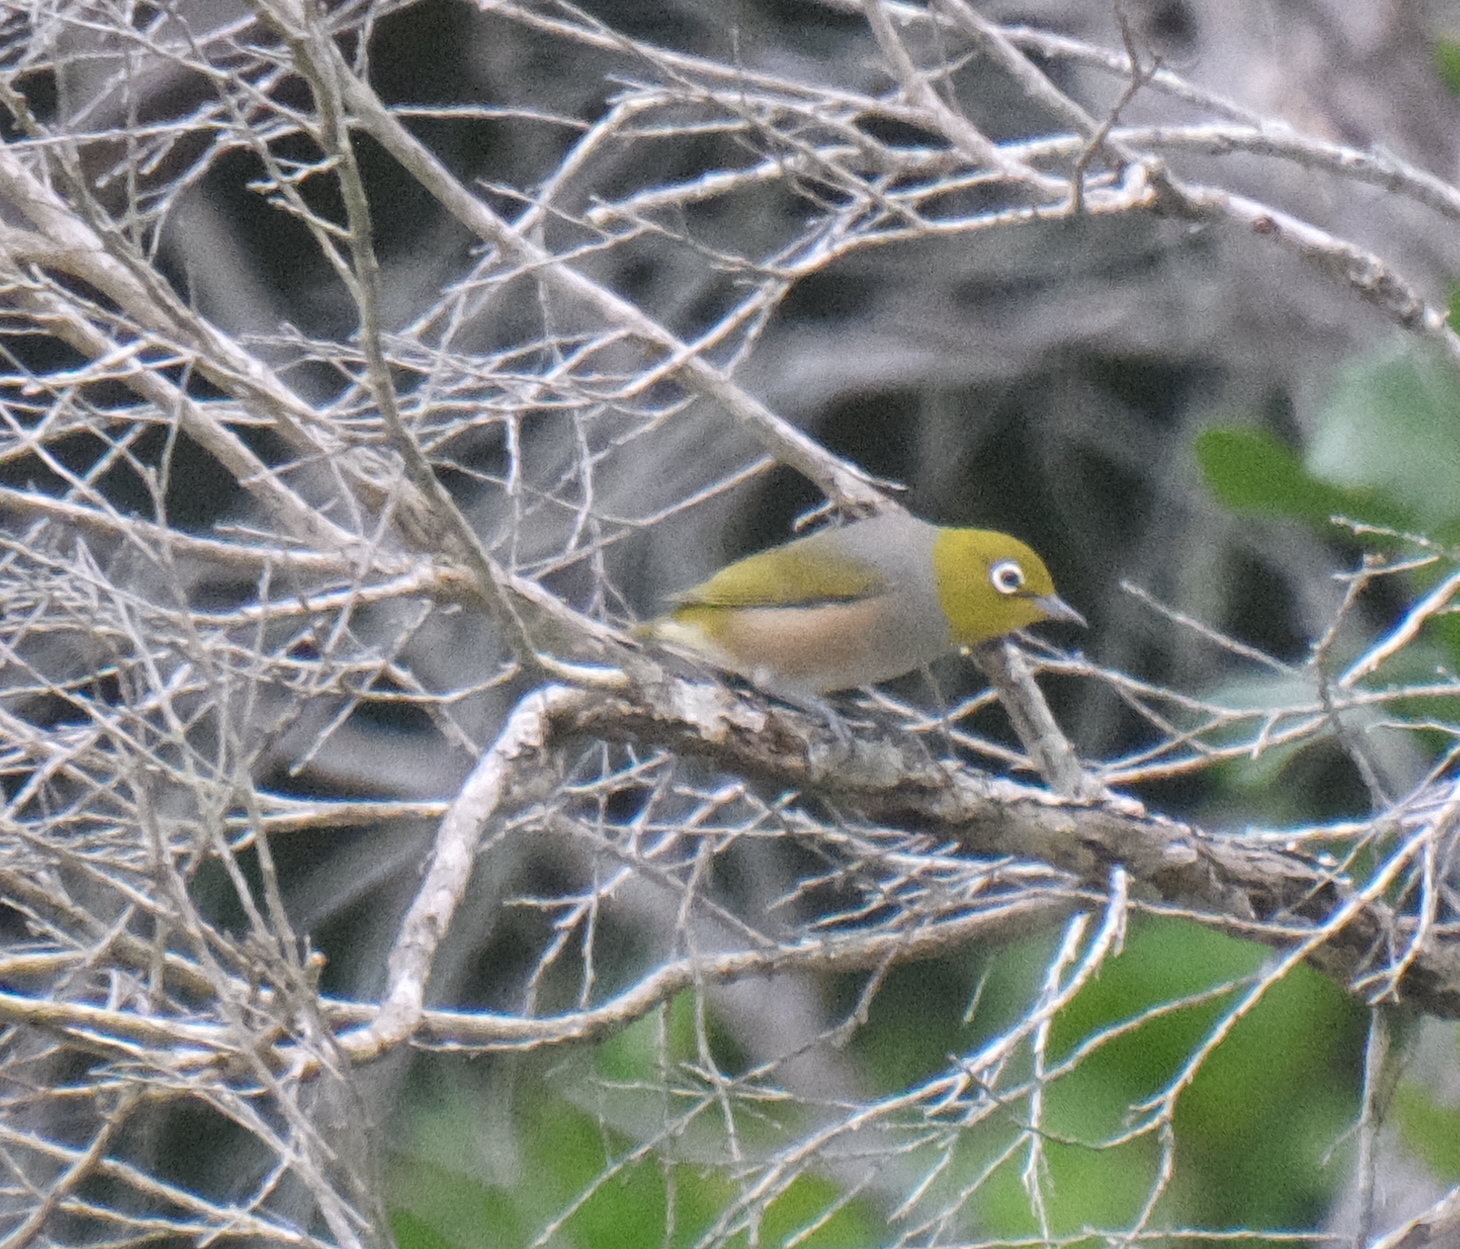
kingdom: Animalia
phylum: Chordata
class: Aves
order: Passeriformes
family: Zosteropidae
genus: Zosterops
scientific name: Zosterops lateralis
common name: Silvereye
